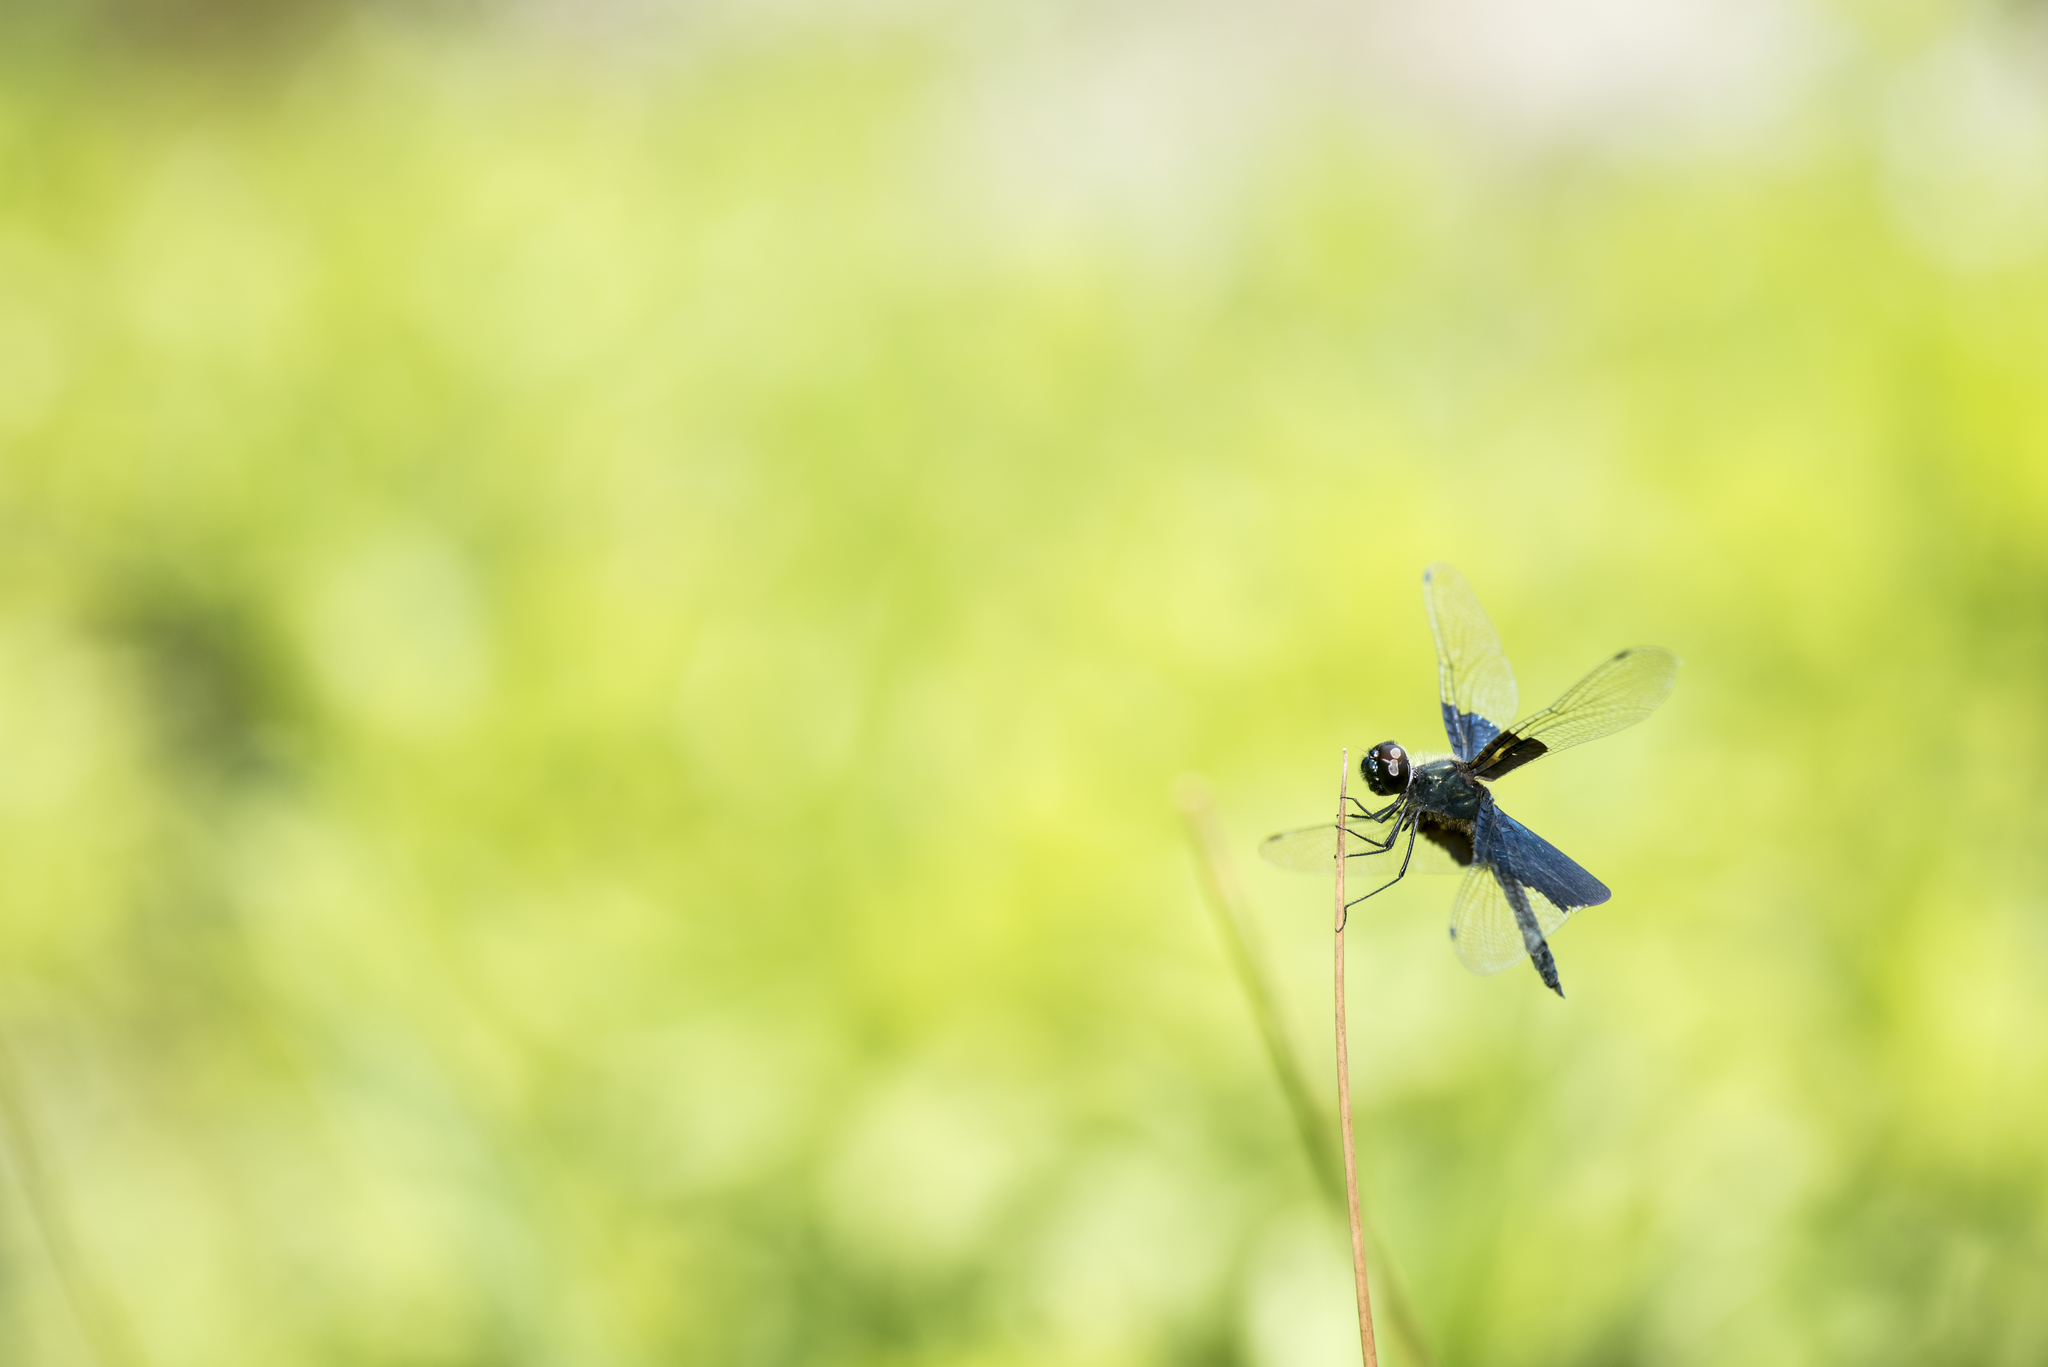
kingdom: Animalia
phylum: Arthropoda
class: Insecta
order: Odonata
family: Libellulidae
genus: Rhyothemis
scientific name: Rhyothemis triangularis
